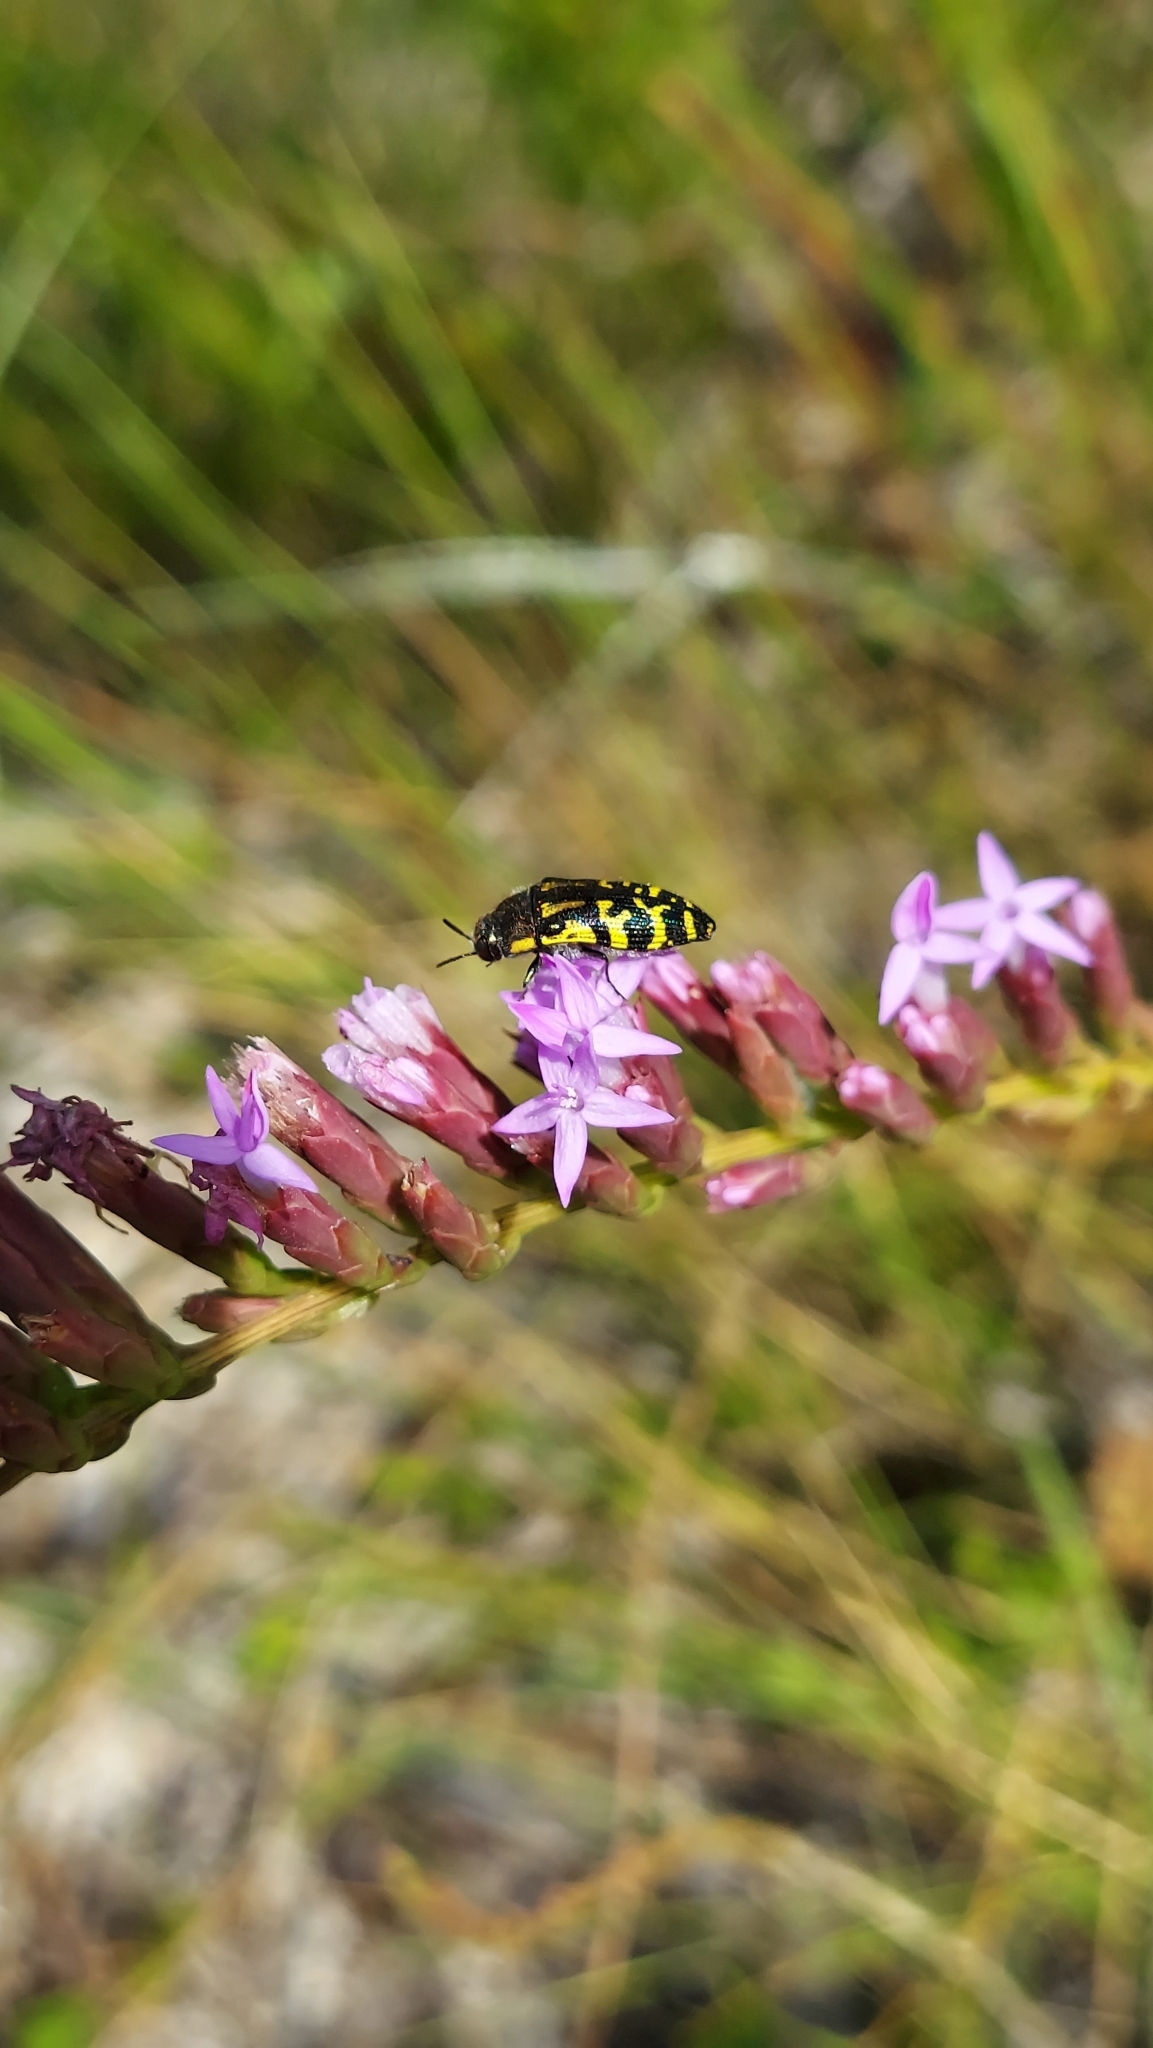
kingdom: Animalia
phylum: Arthropoda
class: Insecta
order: Coleoptera
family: Buprestidae
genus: Acmaeodera
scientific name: Acmaeodera pulchella
